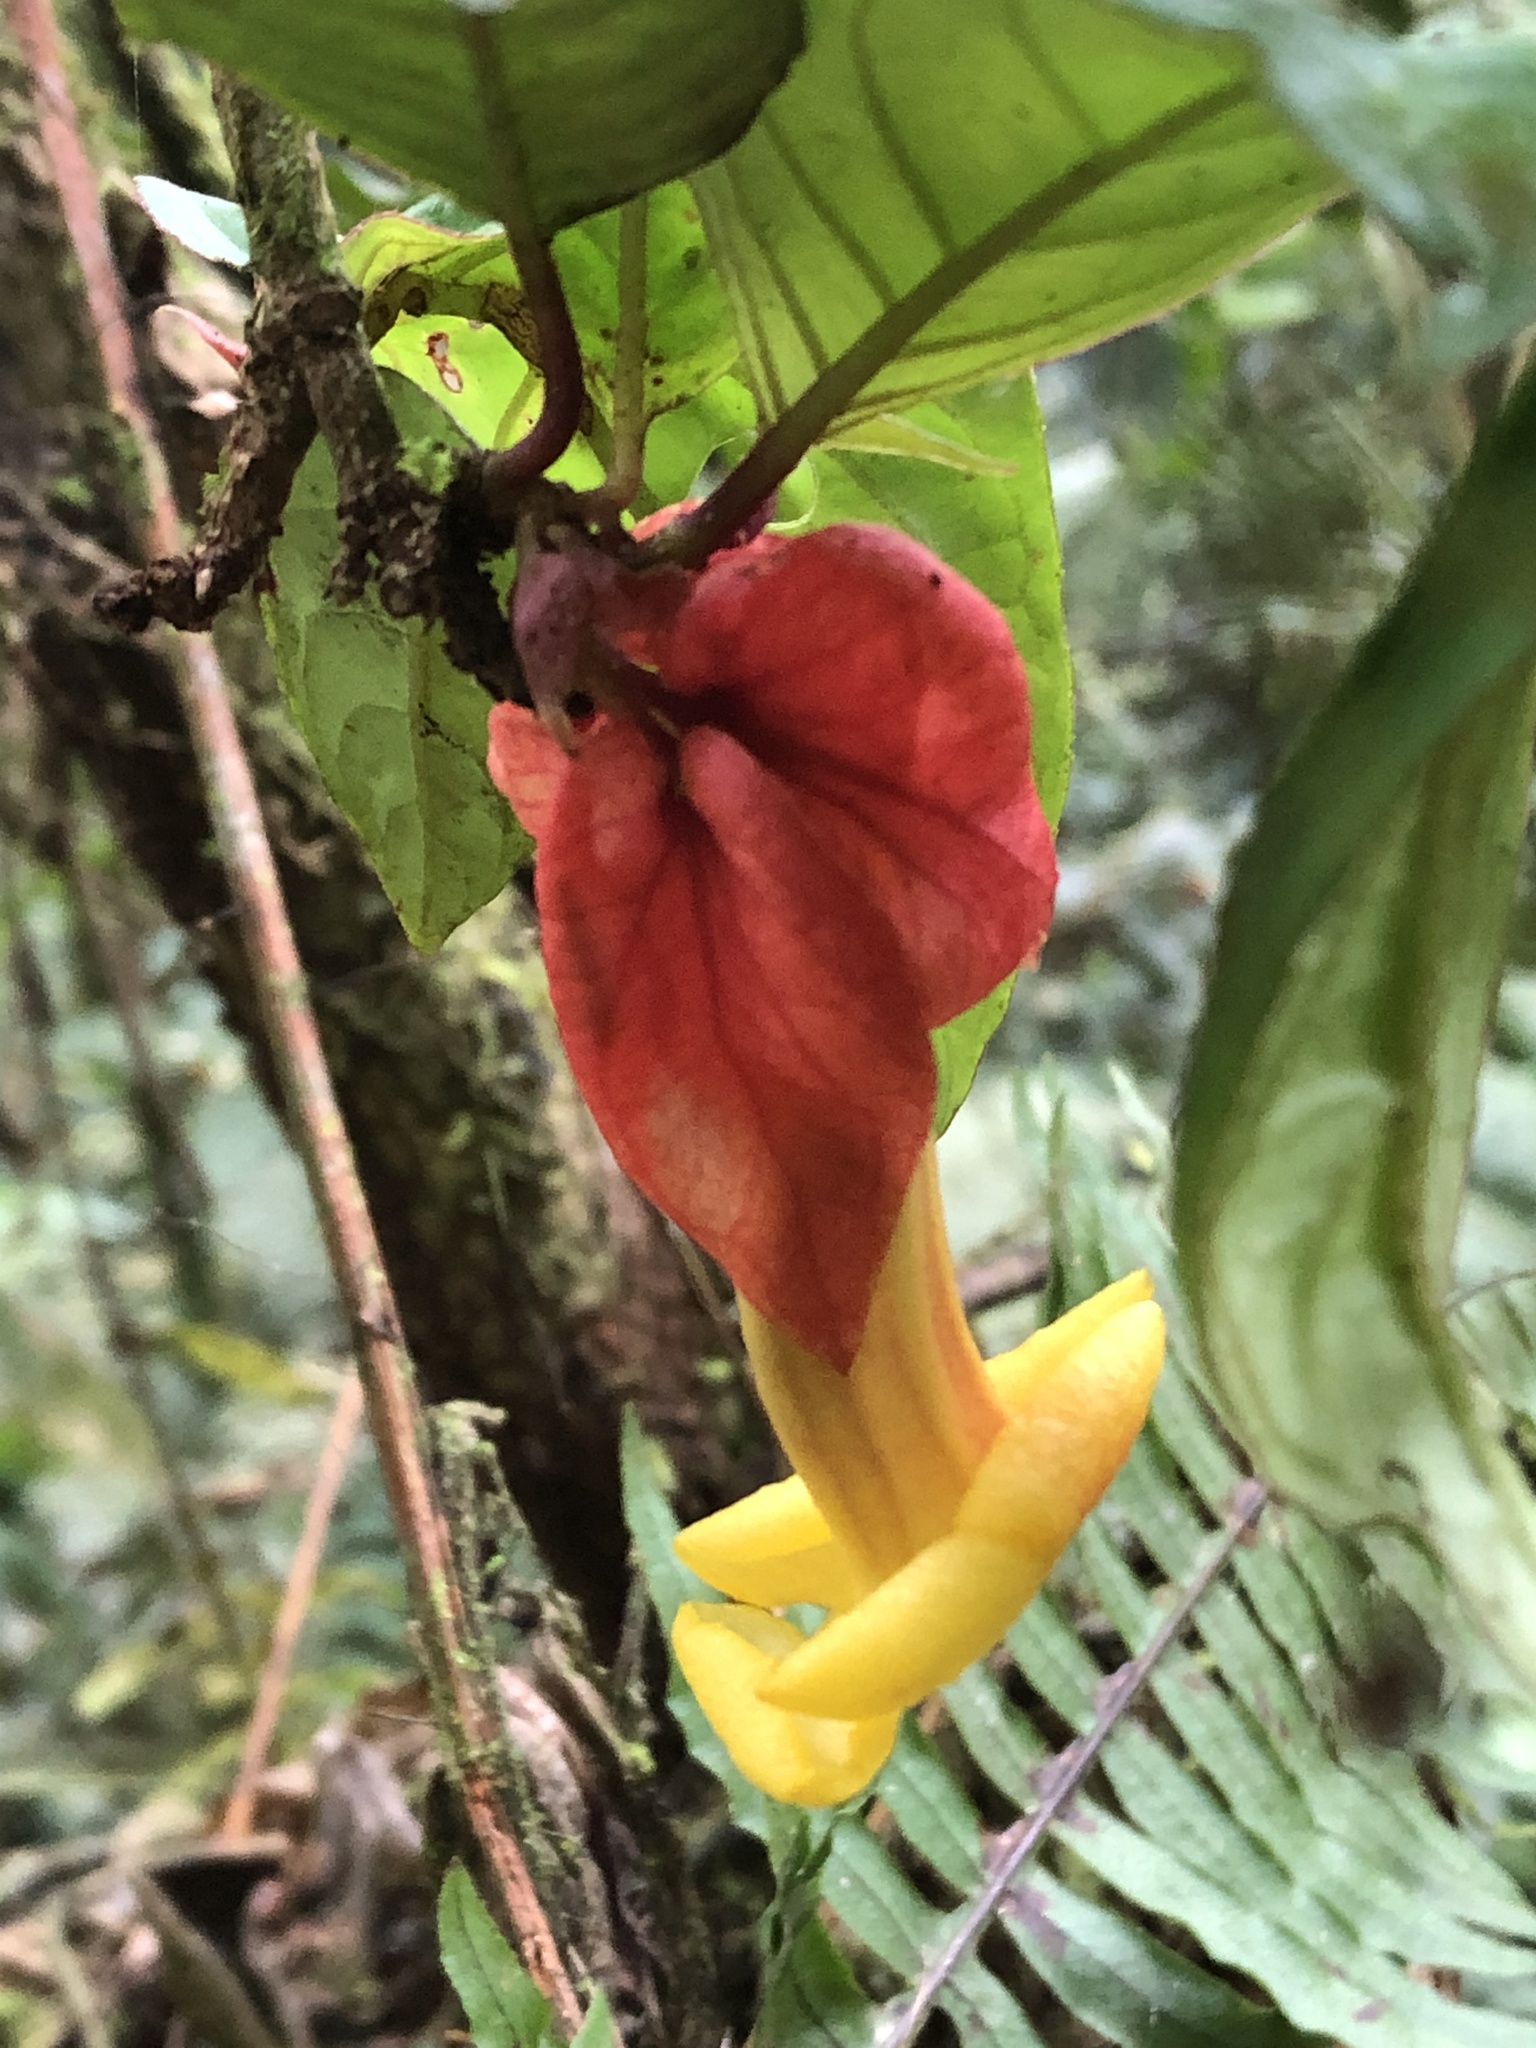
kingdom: Plantae
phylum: Tracheophyta
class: Magnoliopsida
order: Lamiales
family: Gesneriaceae
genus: Drymonia
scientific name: Drymonia coccinea
